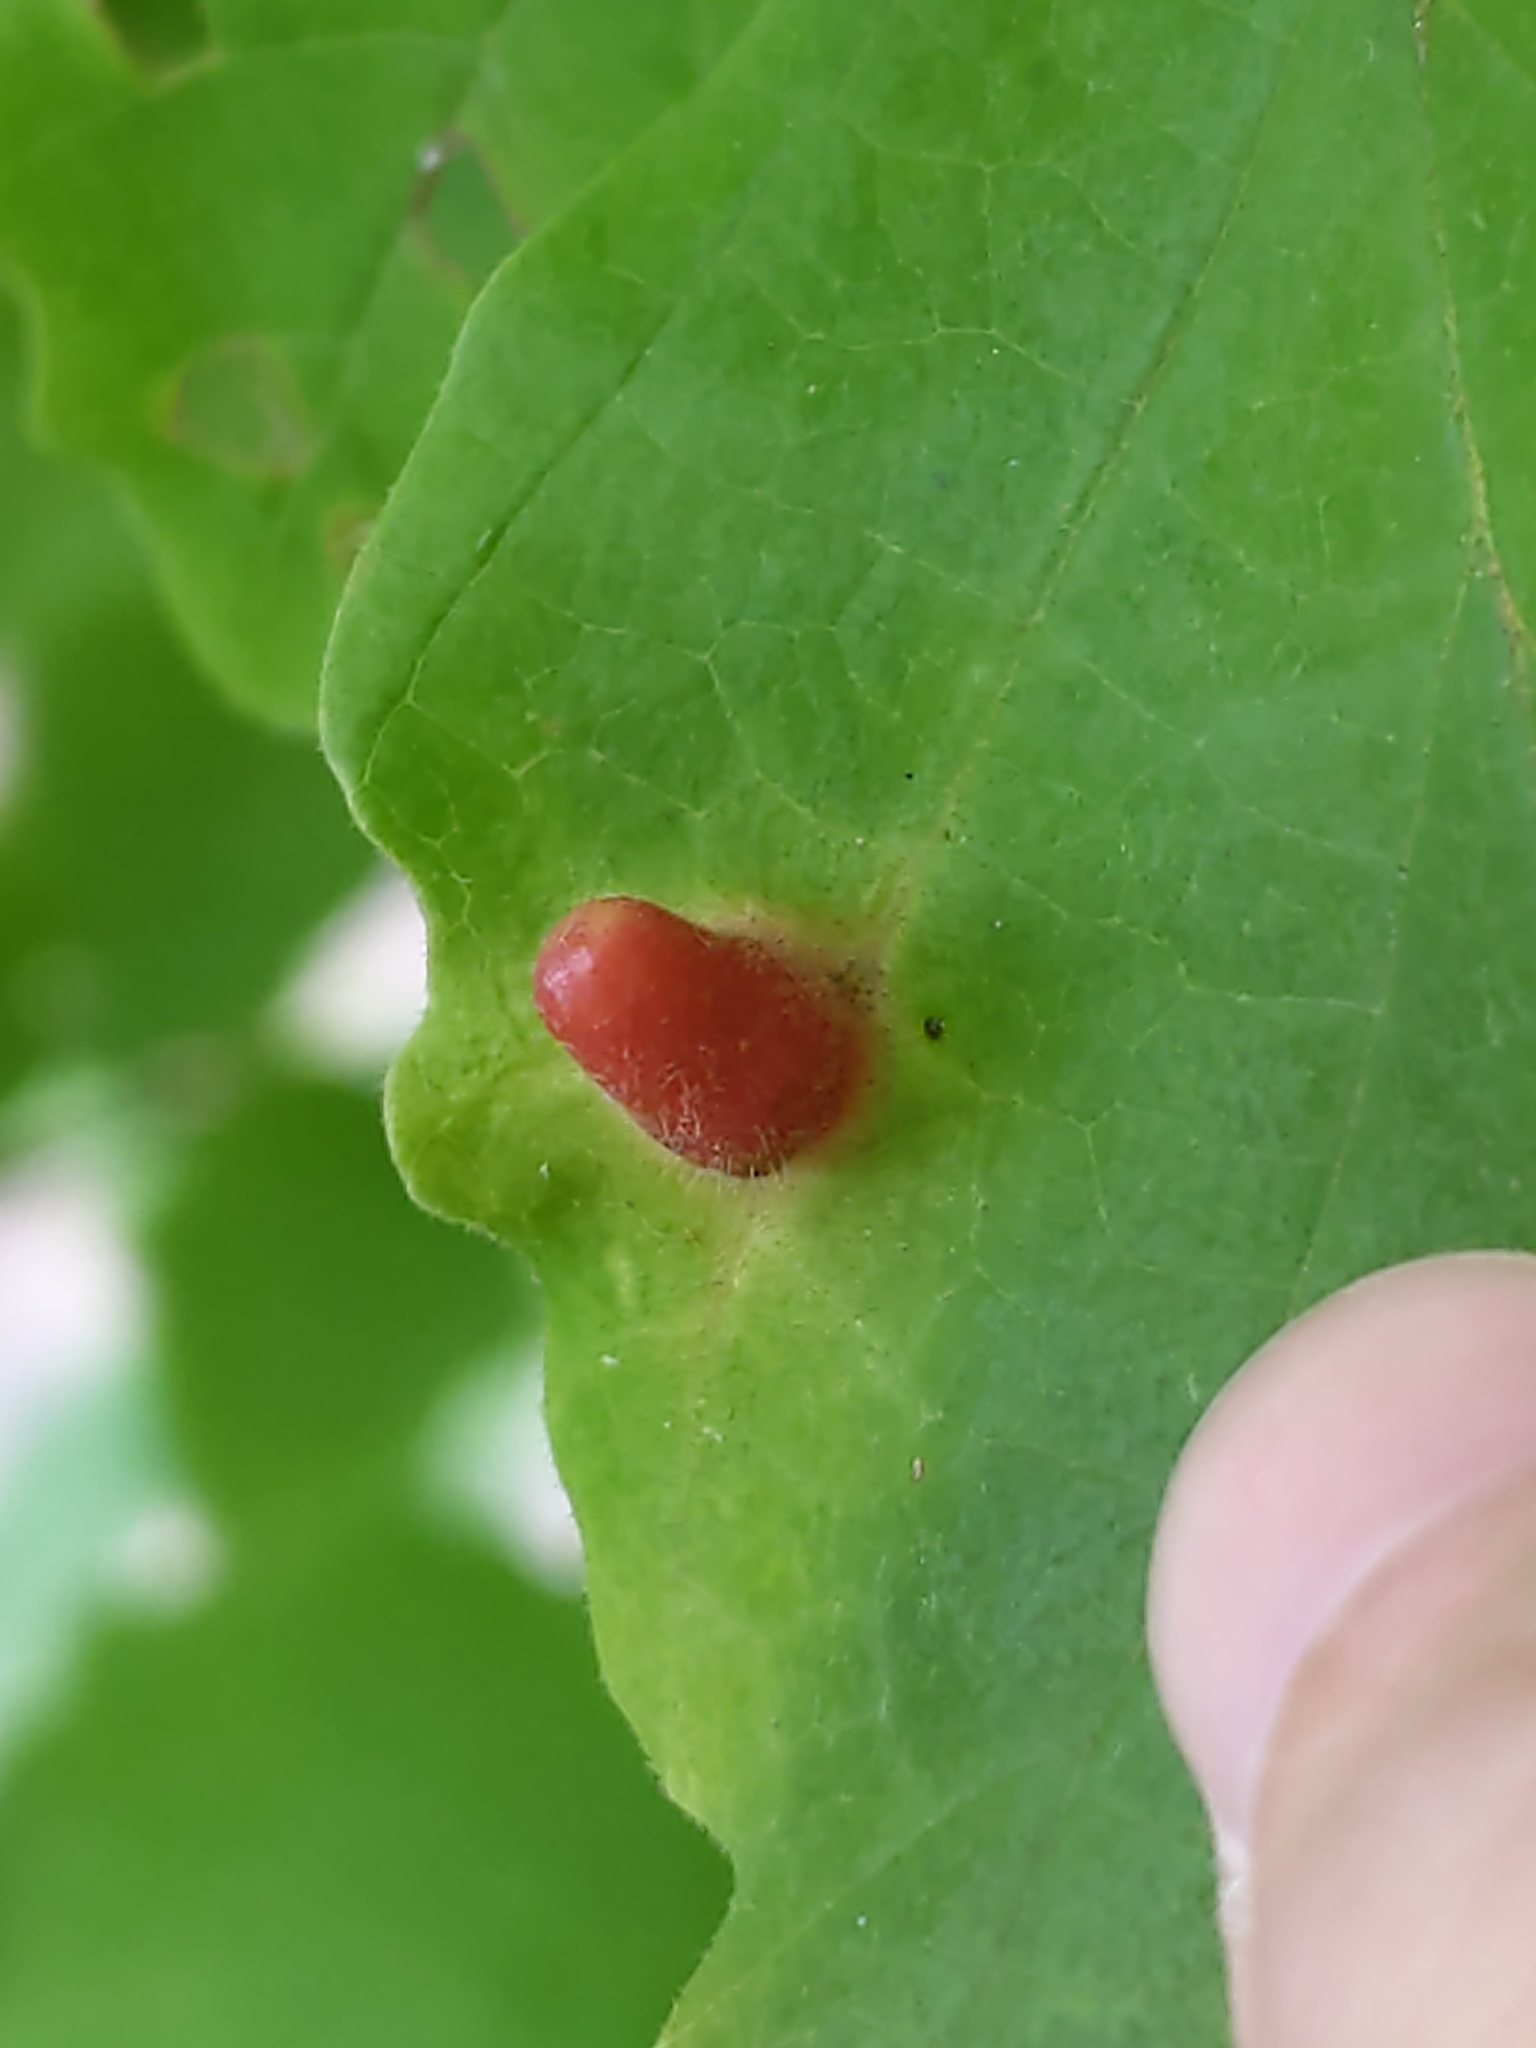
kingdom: Animalia
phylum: Arthropoda
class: Insecta
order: Hemiptera
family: Aphididae
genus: Hormaphis
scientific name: Hormaphis hamamelidis
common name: Witch-hazel cone gall aphid
